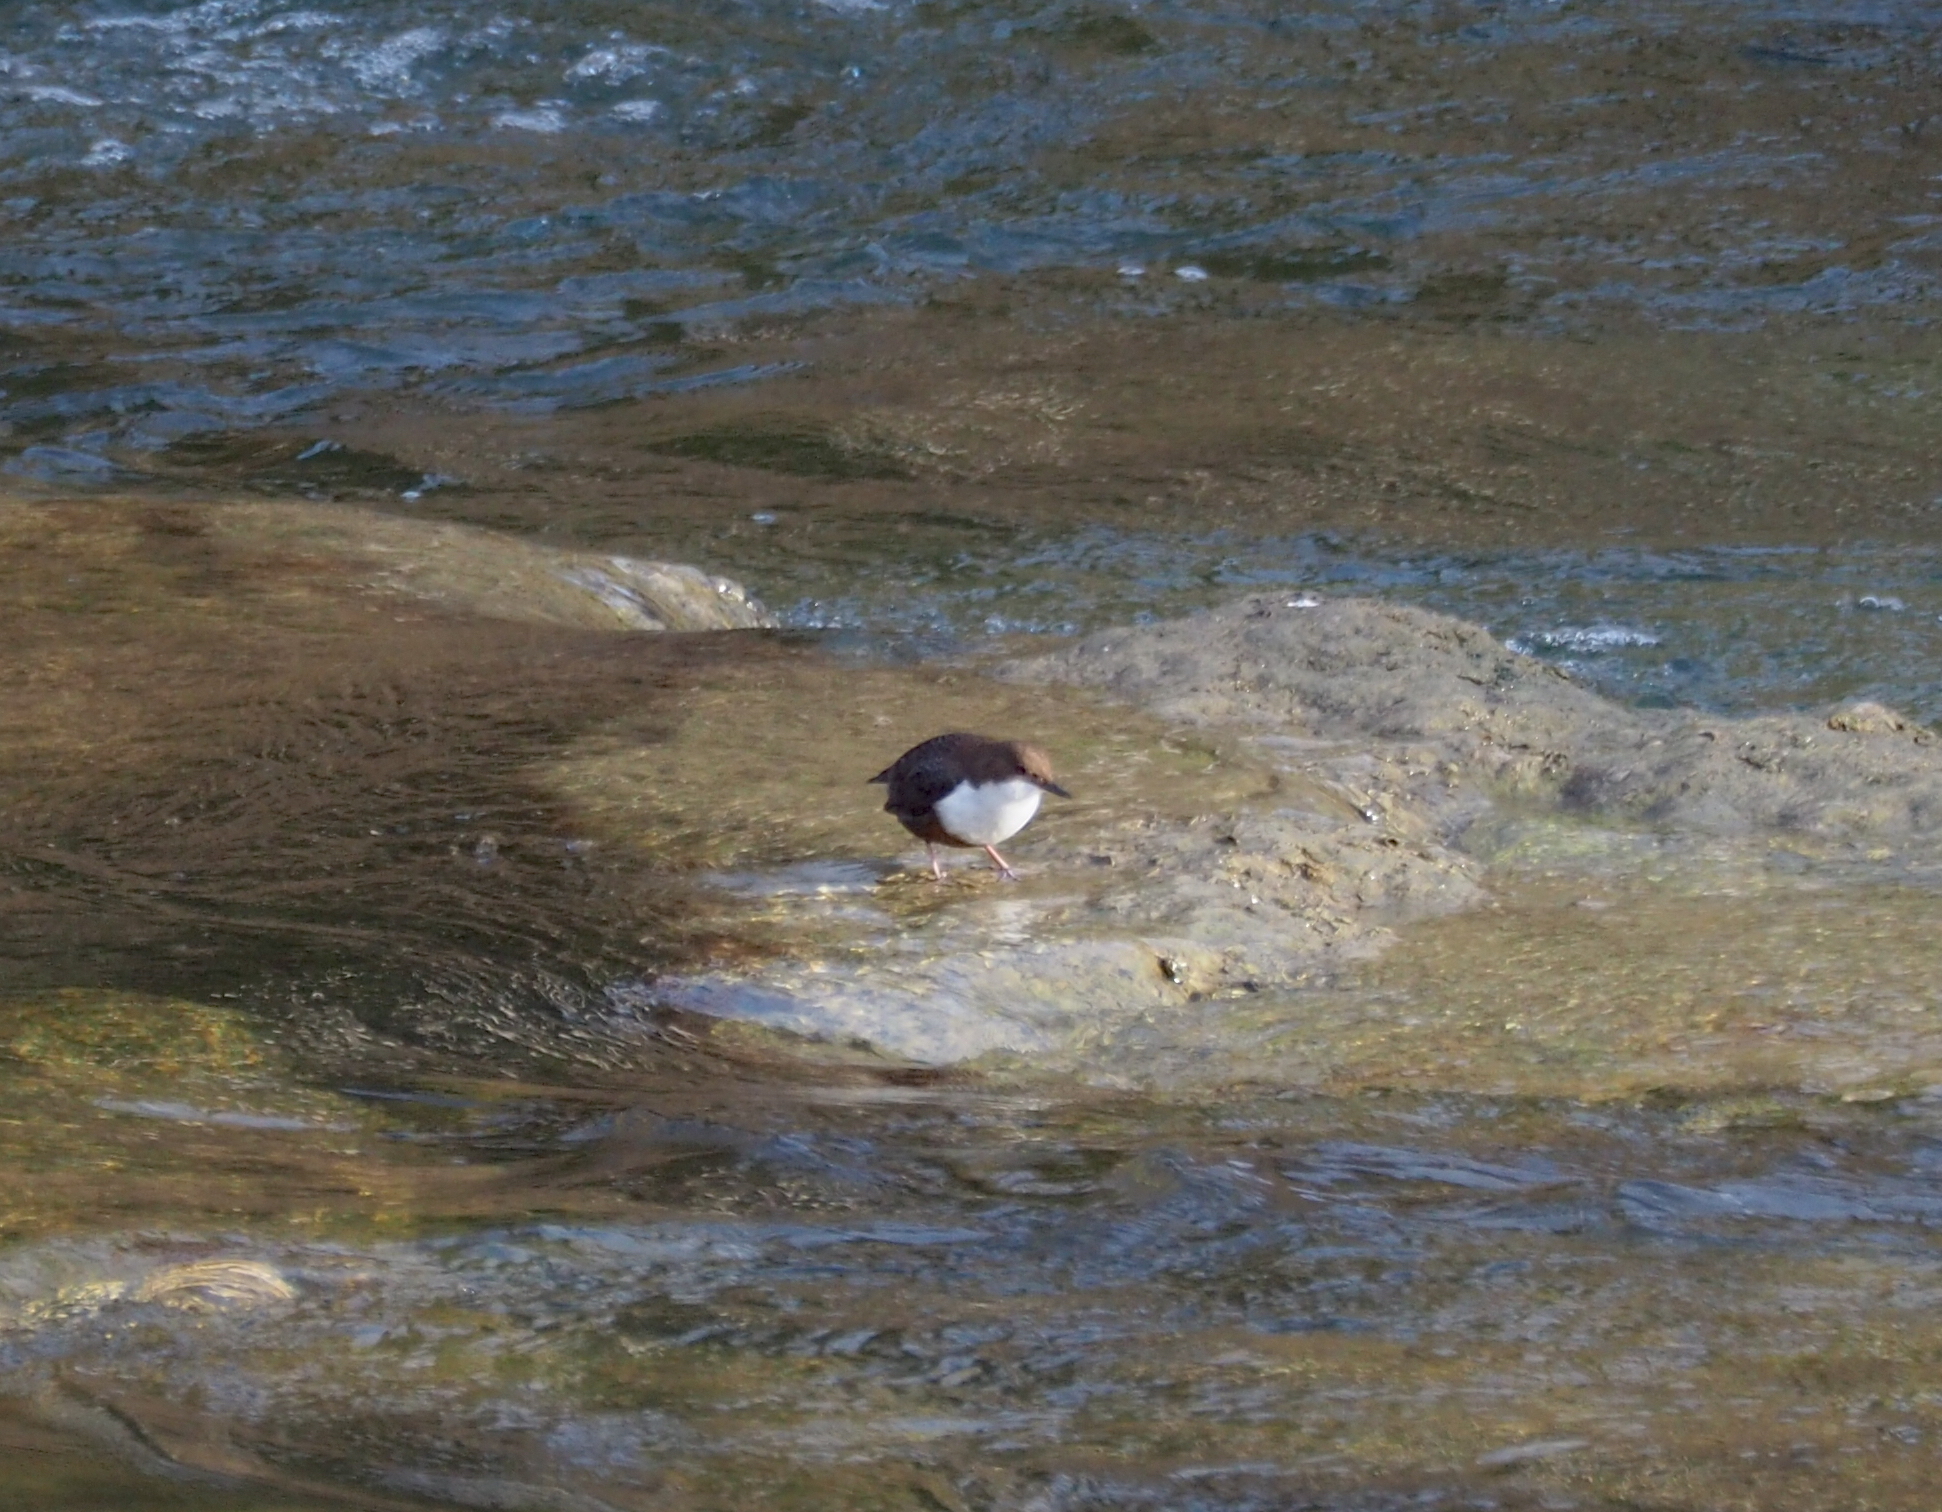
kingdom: Animalia
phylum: Chordata
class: Aves
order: Passeriformes
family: Cinclidae
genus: Cinclus
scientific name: Cinclus cinclus
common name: White-throated dipper
